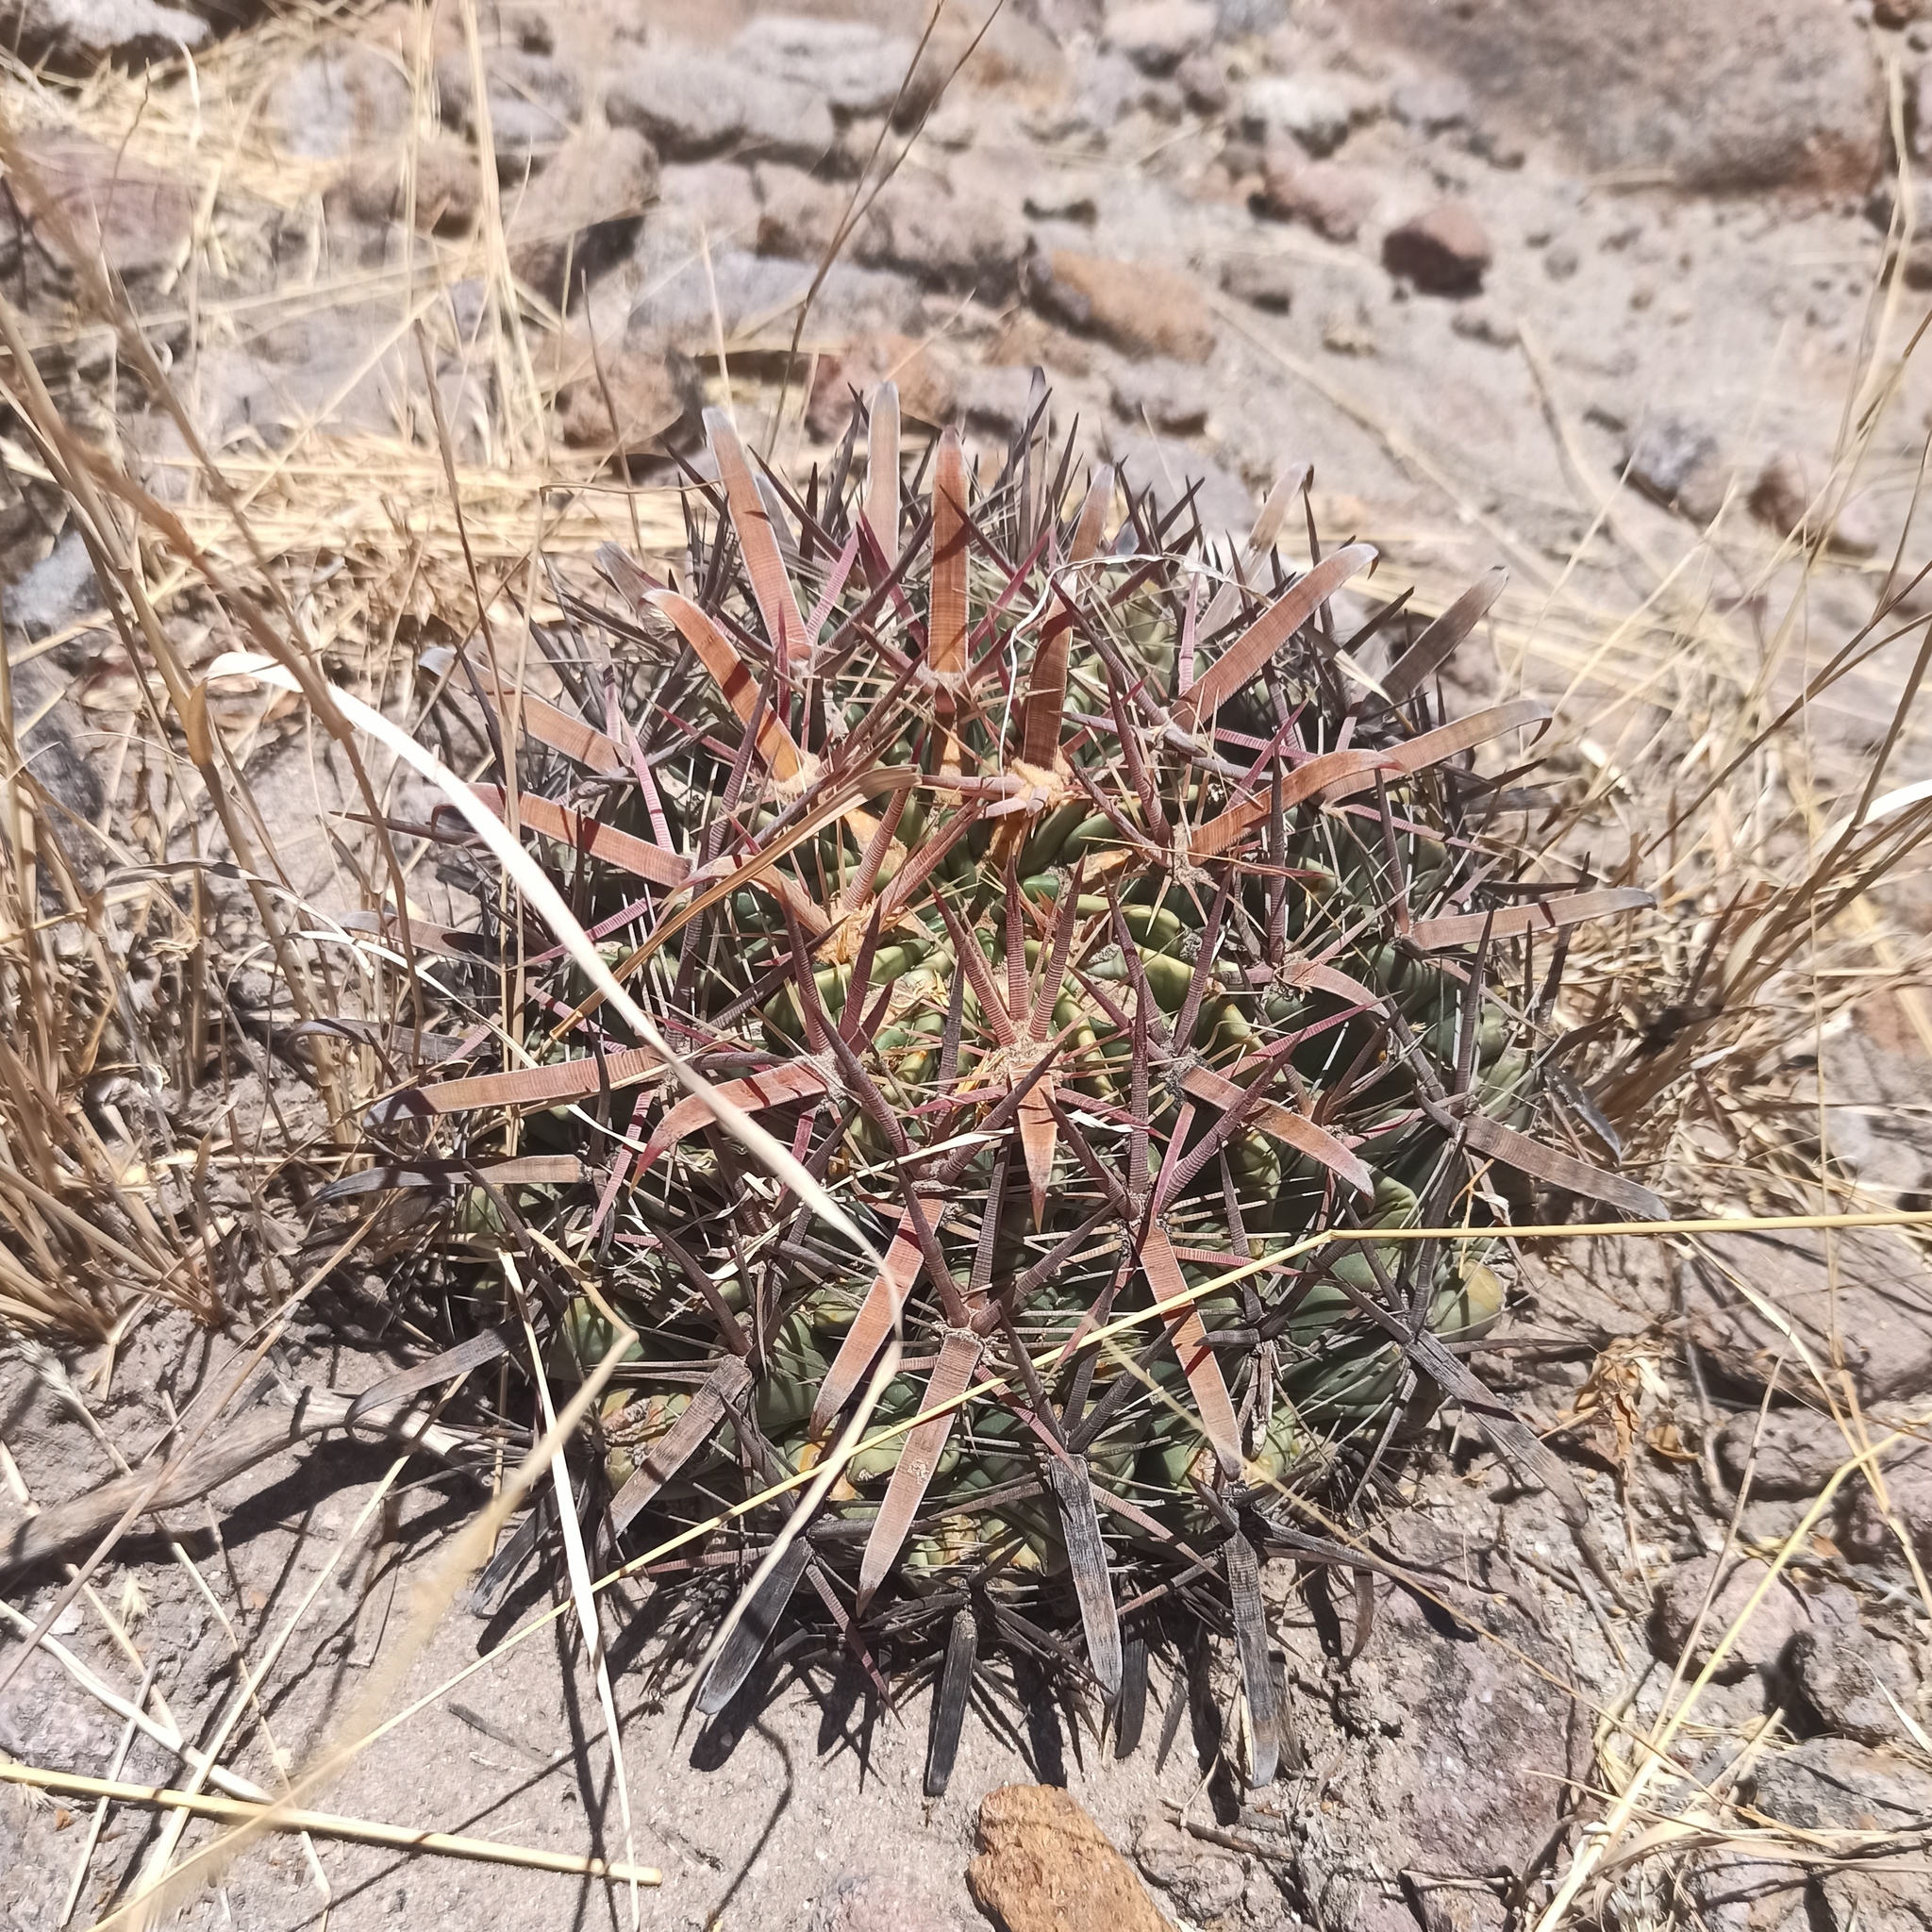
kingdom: Plantae
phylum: Tracheophyta
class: Magnoliopsida
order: Caryophyllales
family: Cactaceae
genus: Ferocactus
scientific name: Ferocactus latispinus
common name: Devil's-tongue cactus
